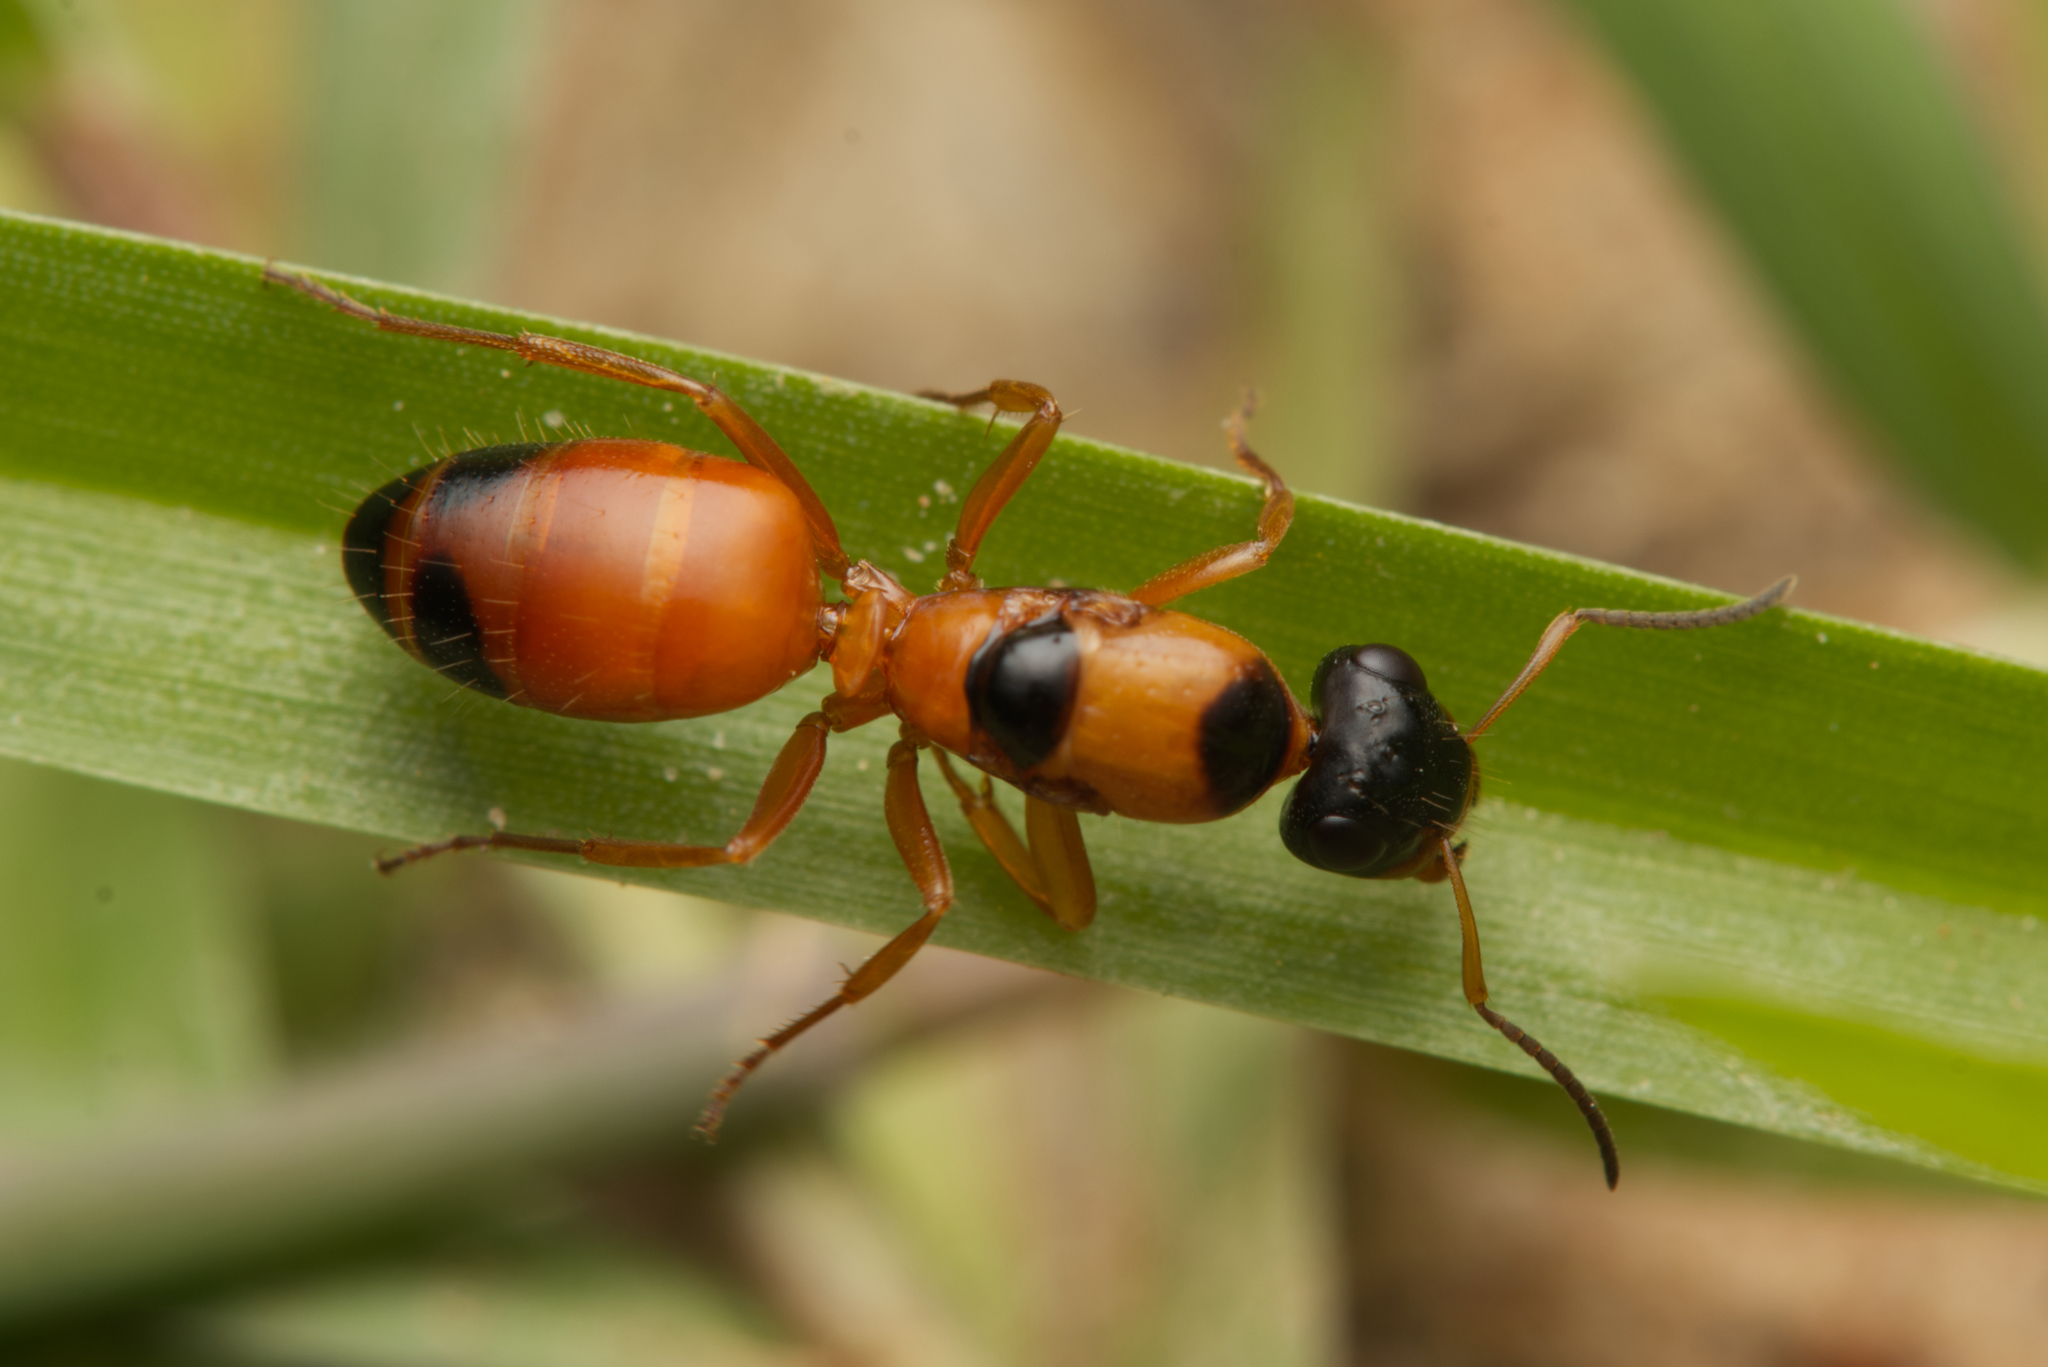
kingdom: Animalia
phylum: Arthropoda
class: Insecta
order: Hymenoptera
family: Formicidae
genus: Opisthopsis
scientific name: Opisthopsis rufithorax
